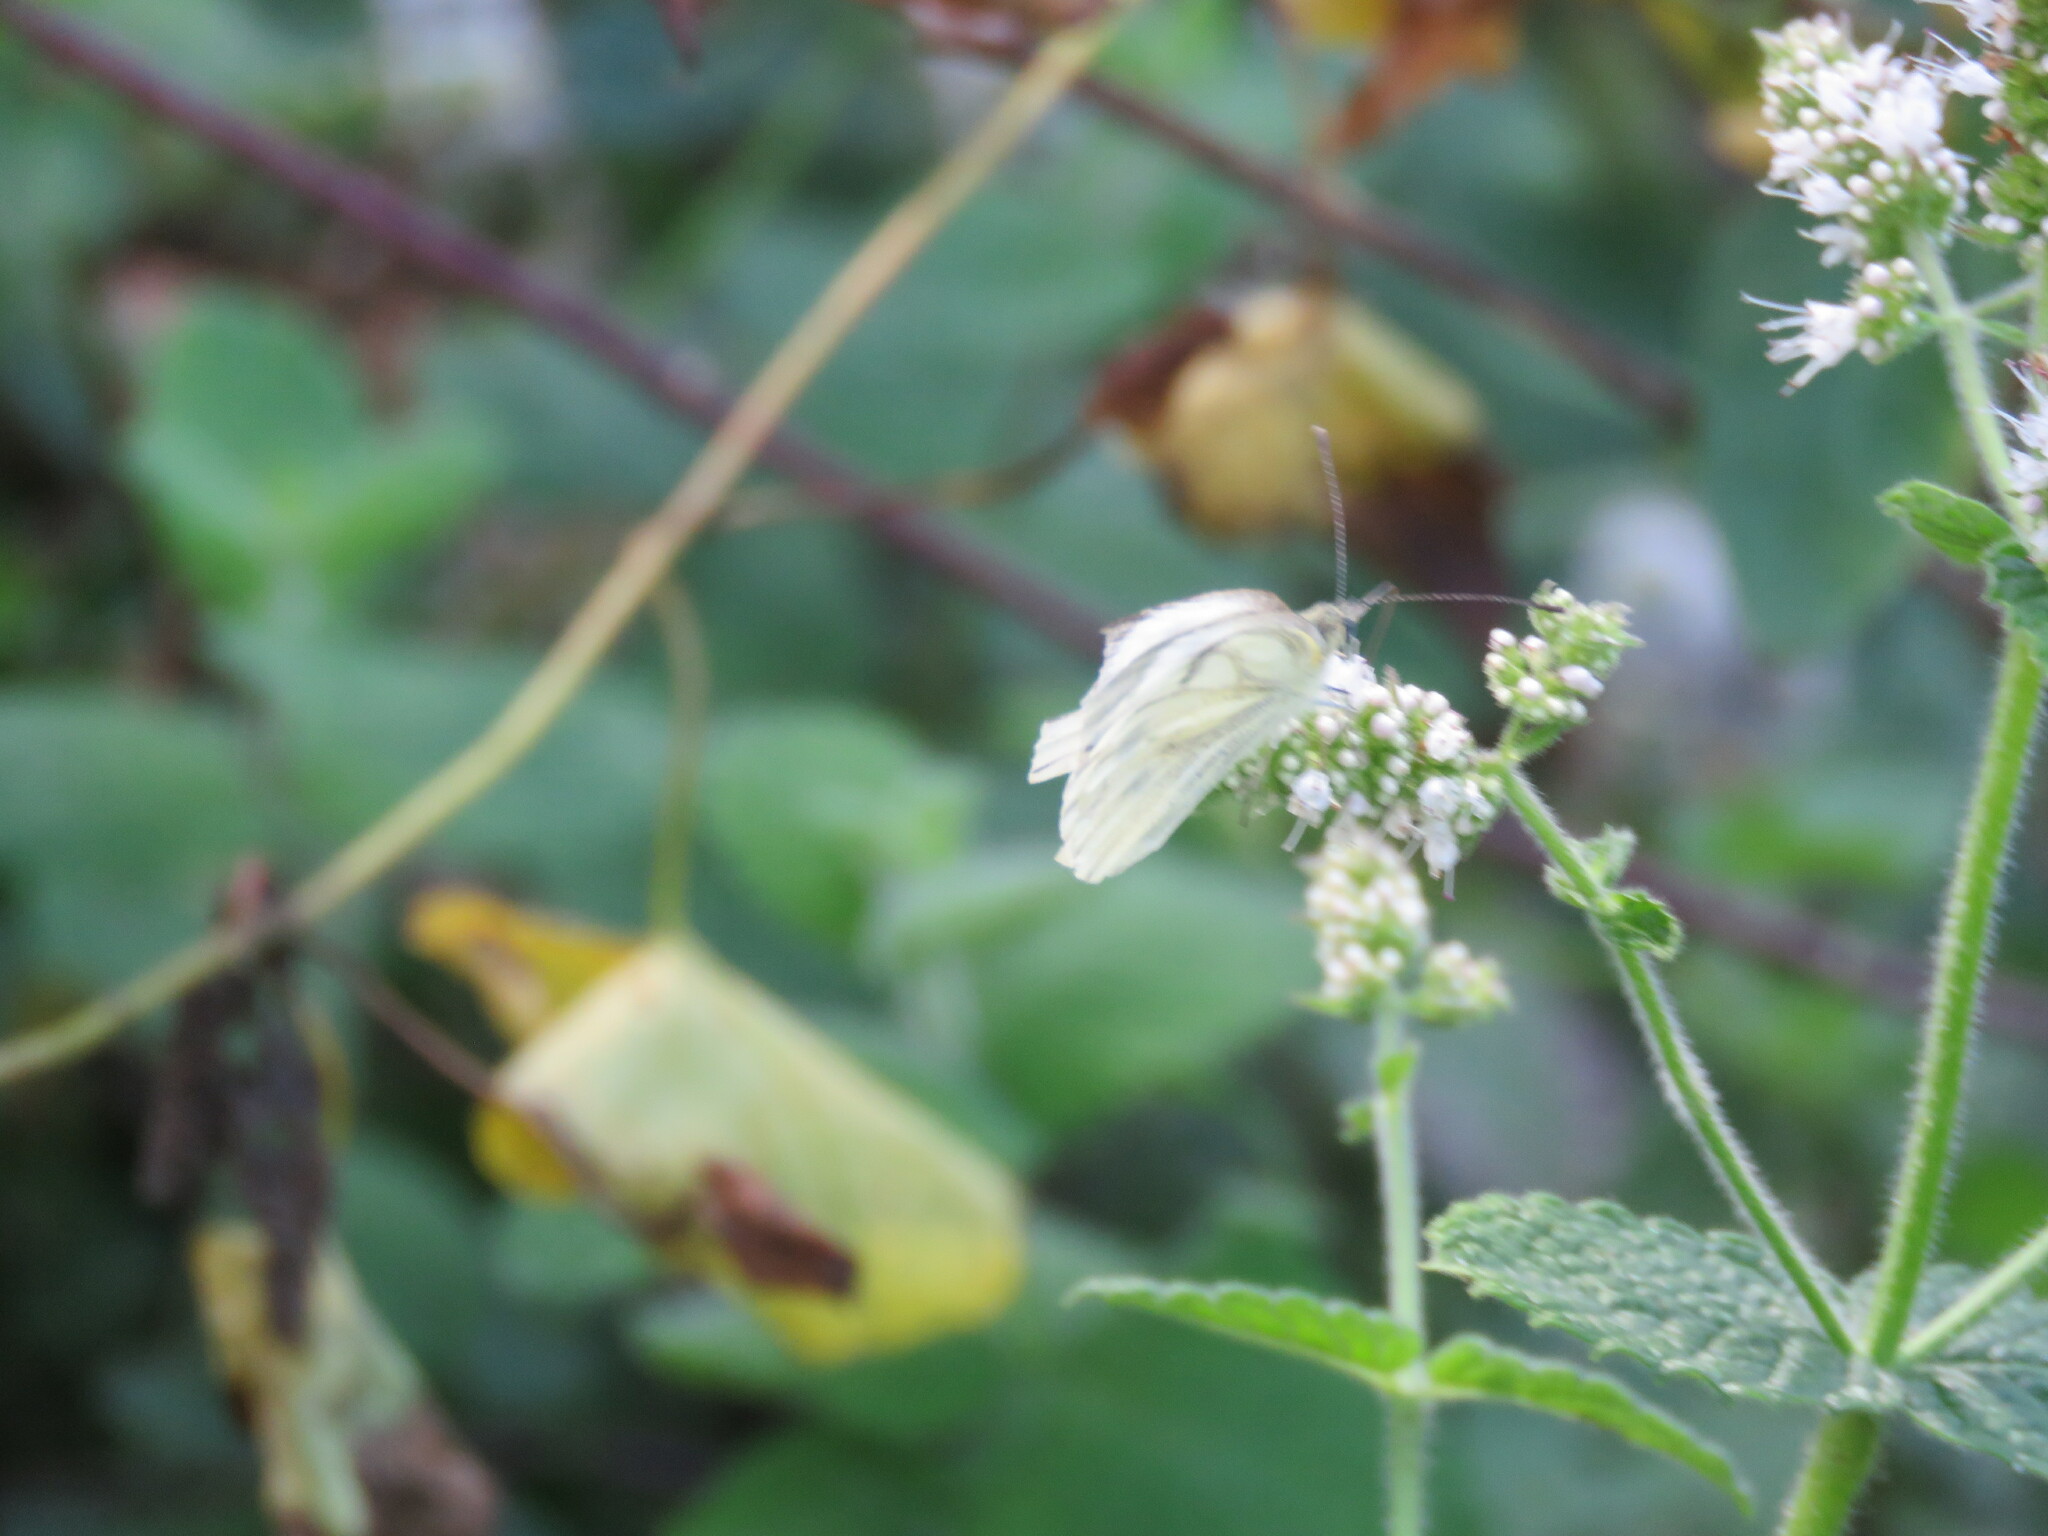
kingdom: Animalia
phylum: Arthropoda
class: Insecta
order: Lepidoptera
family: Pieridae
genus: Pieris
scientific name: Pieris napi
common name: Green-veined white
